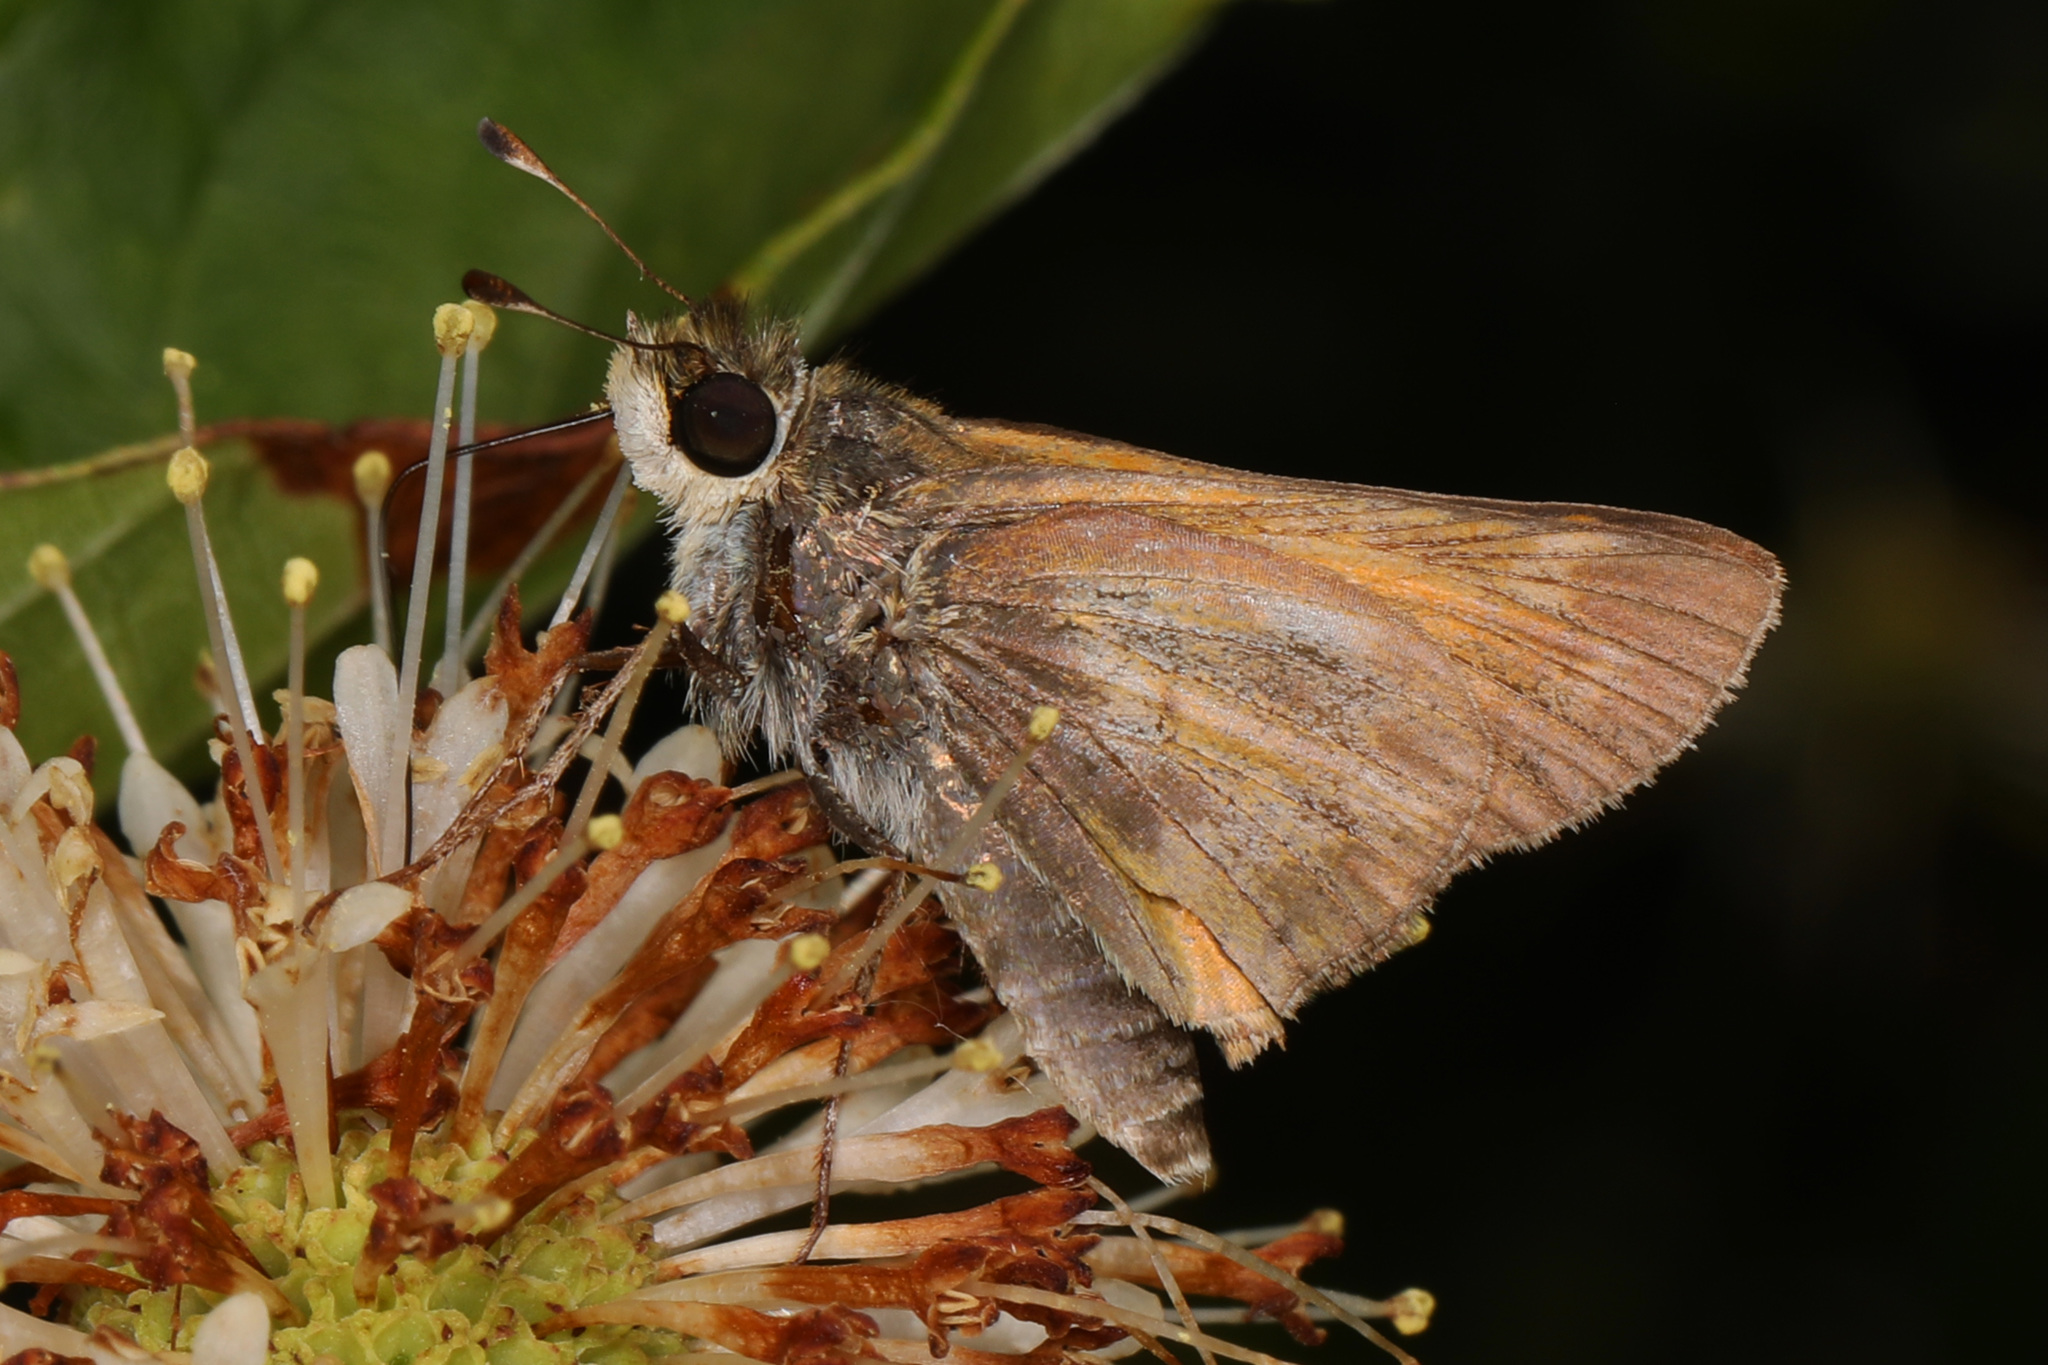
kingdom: Animalia
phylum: Arthropoda
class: Insecta
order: Lepidoptera
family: Hesperiidae
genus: Atalopedes
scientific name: Atalopedes
